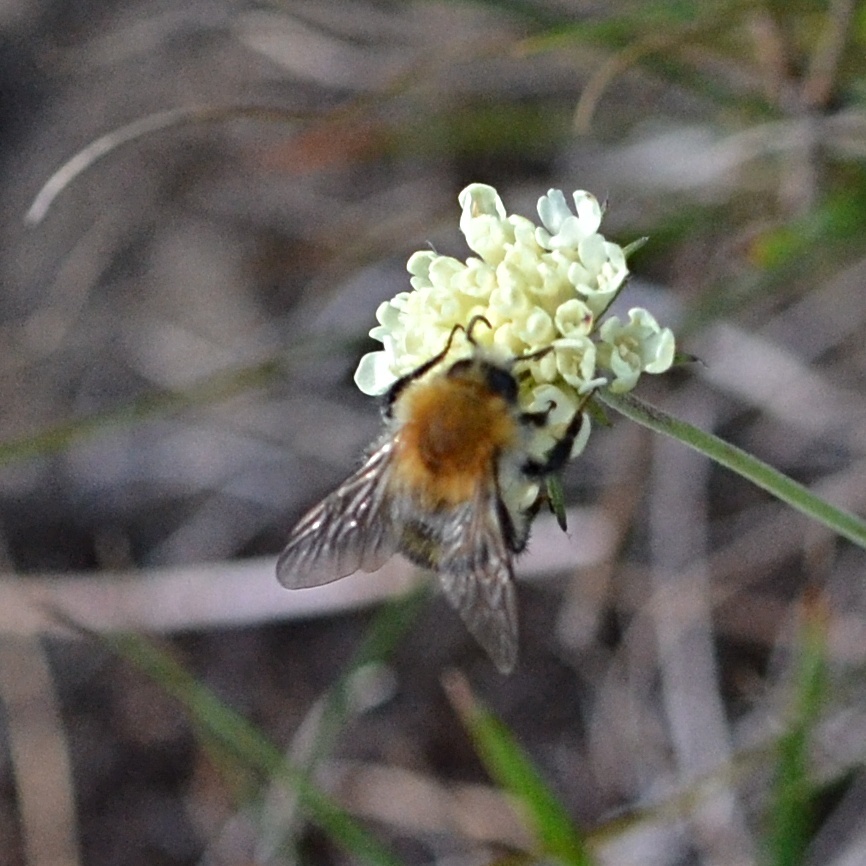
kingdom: Animalia
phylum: Arthropoda
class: Insecta
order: Hymenoptera
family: Apidae
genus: Bombus
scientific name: Bombus pascuorum
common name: Common carder bee
